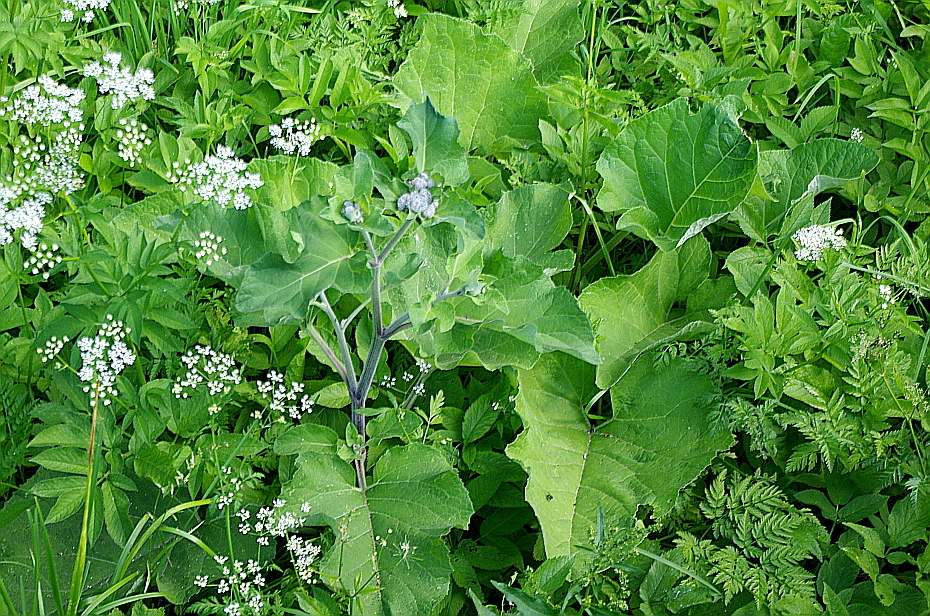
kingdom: Plantae
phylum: Tracheophyta
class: Magnoliopsida
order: Asterales
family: Asteraceae
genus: Arctium
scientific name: Arctium tomentosum
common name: Woolly burdock
